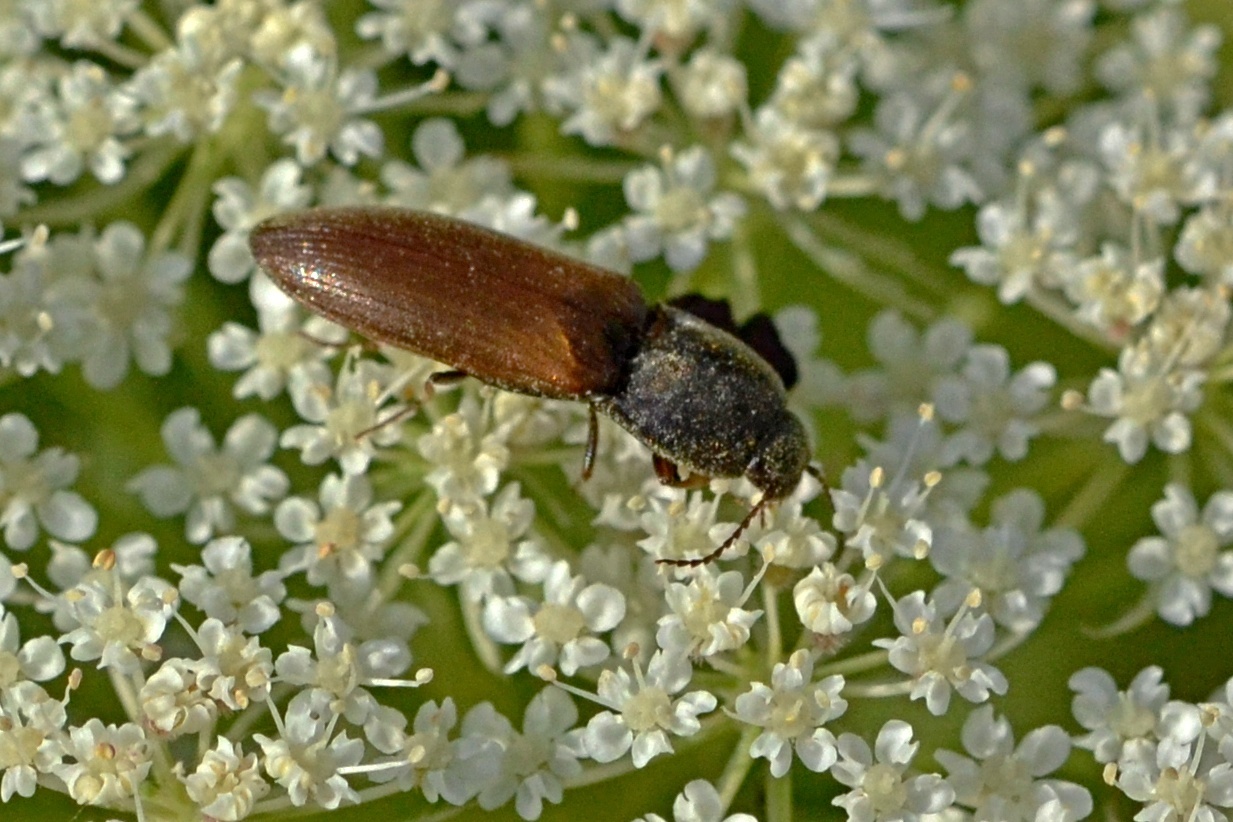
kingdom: Animalia
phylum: Arthropoda
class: Insecta
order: Coleoptera
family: Elateridae
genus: Agriotes
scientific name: Agriotes ustulatus
